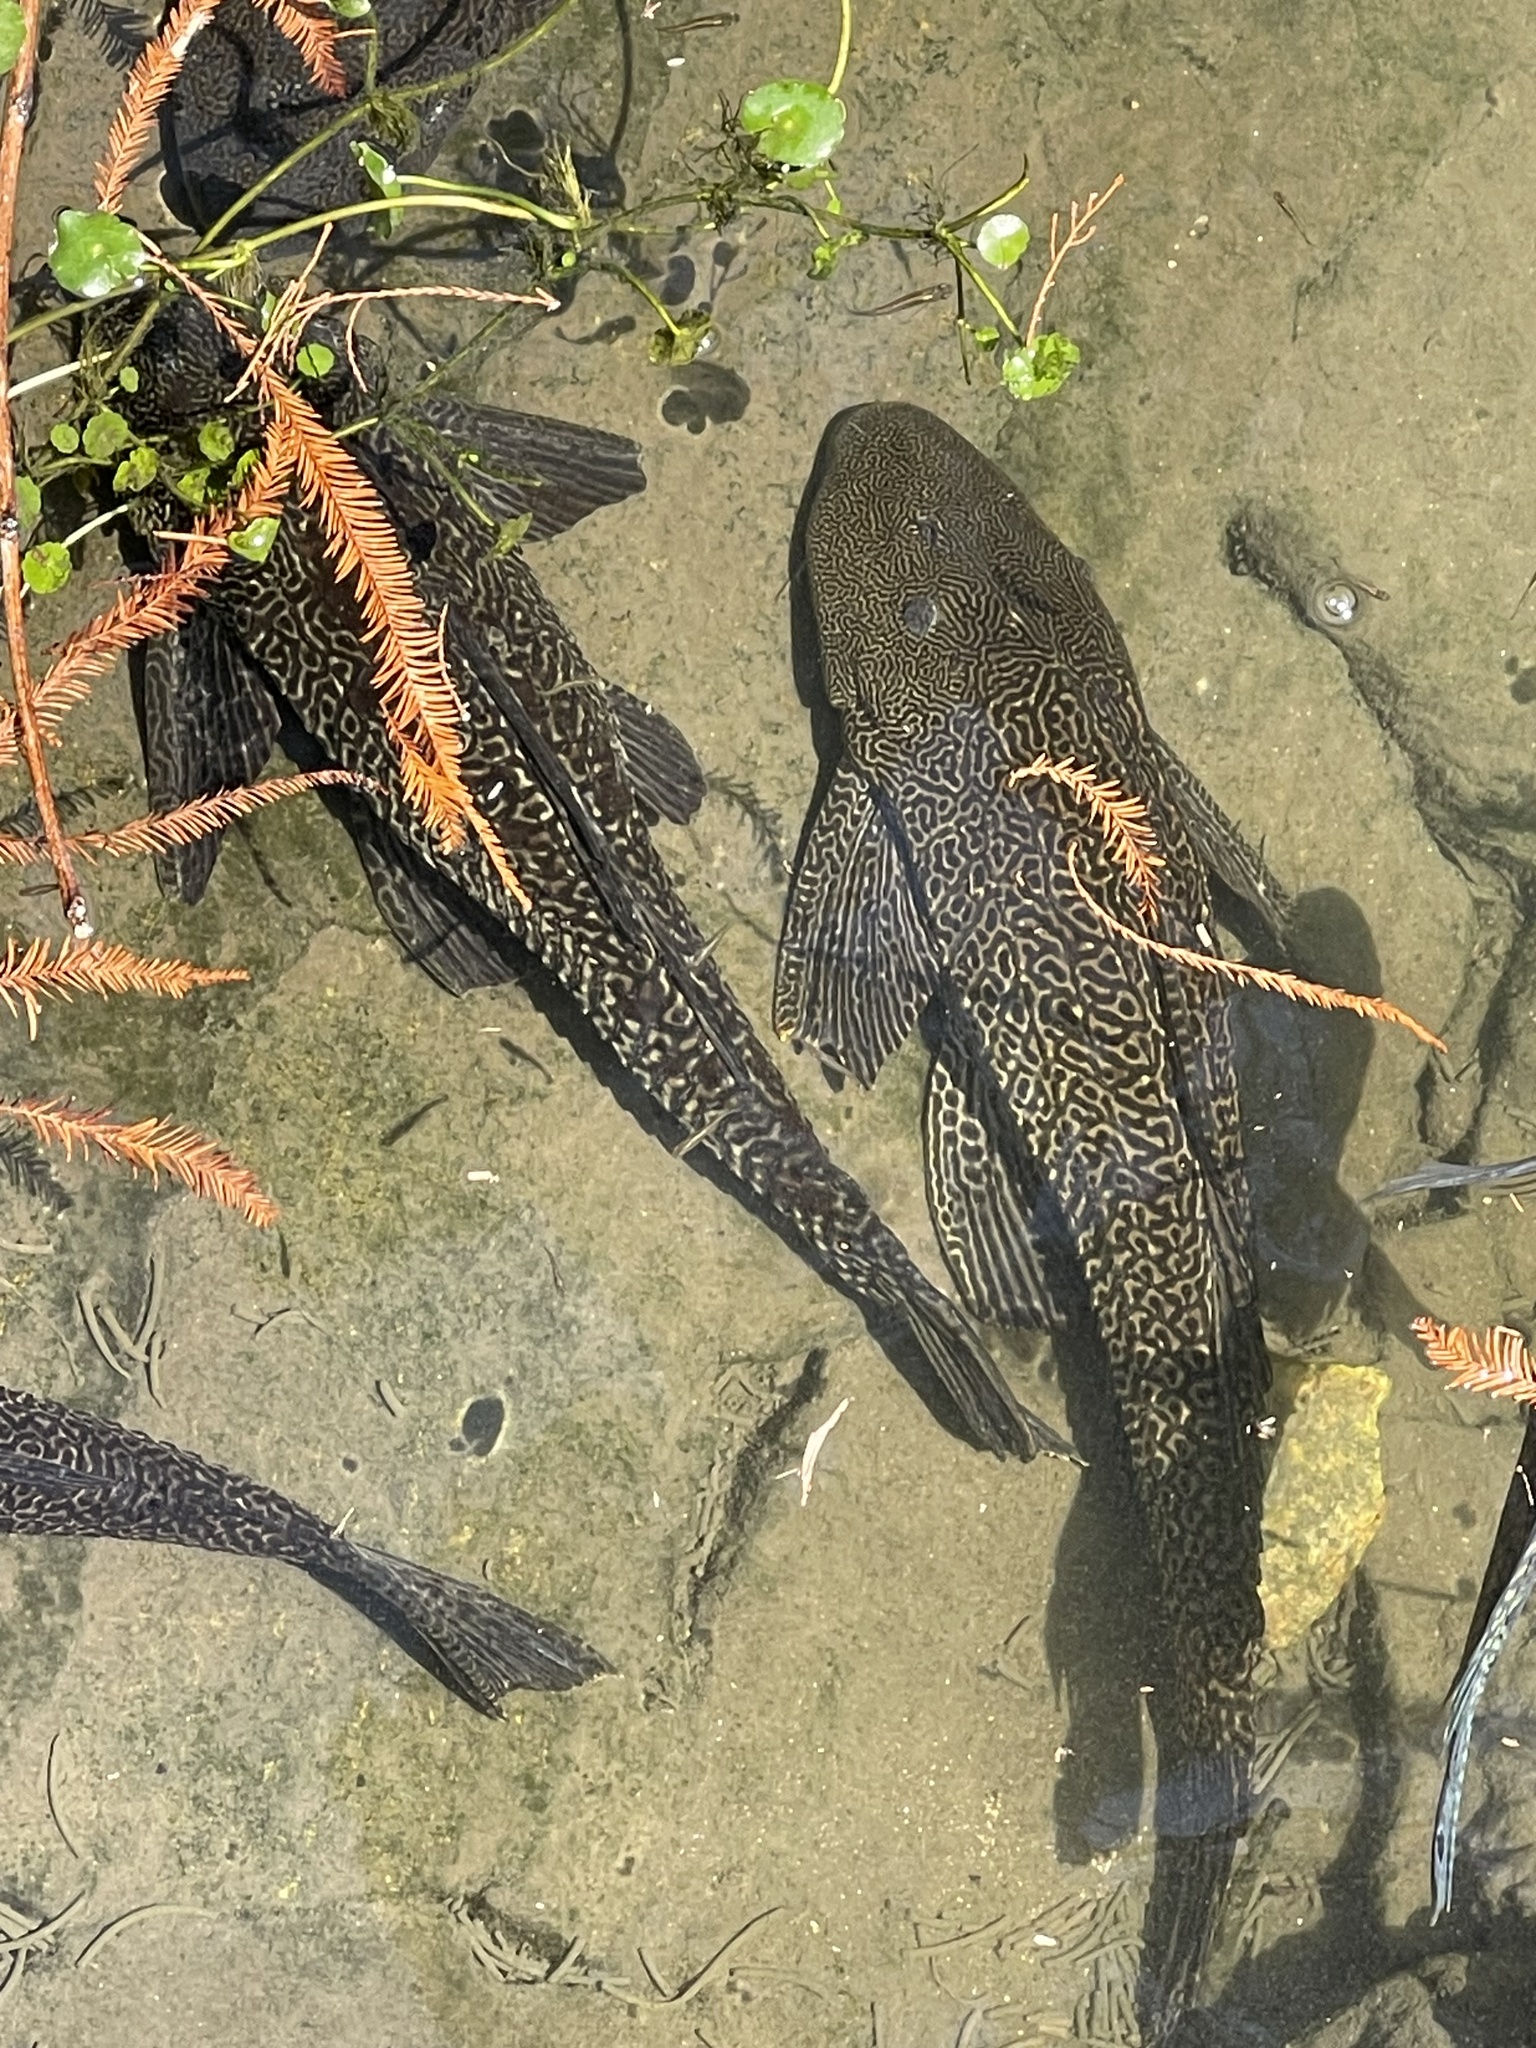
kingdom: Animalia
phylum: Chordata
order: Siluriformes
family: Loricariidae
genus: Pterygoplichthys
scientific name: Pterygoplichthys
